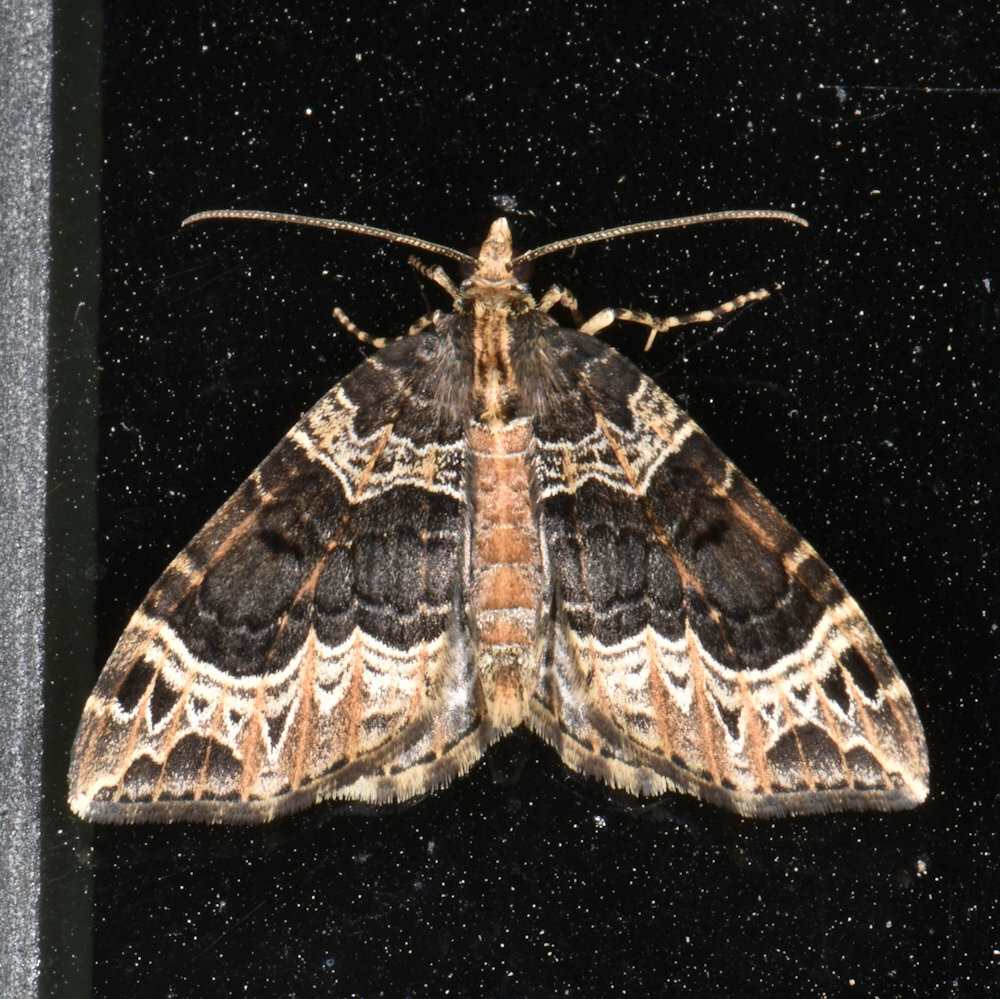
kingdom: Animalia
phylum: Arthropoda
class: Insecta
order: Lepidoptera
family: Geometridae
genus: Ecliptopera
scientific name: Ecliptopera silaceata
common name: Small phoenix
